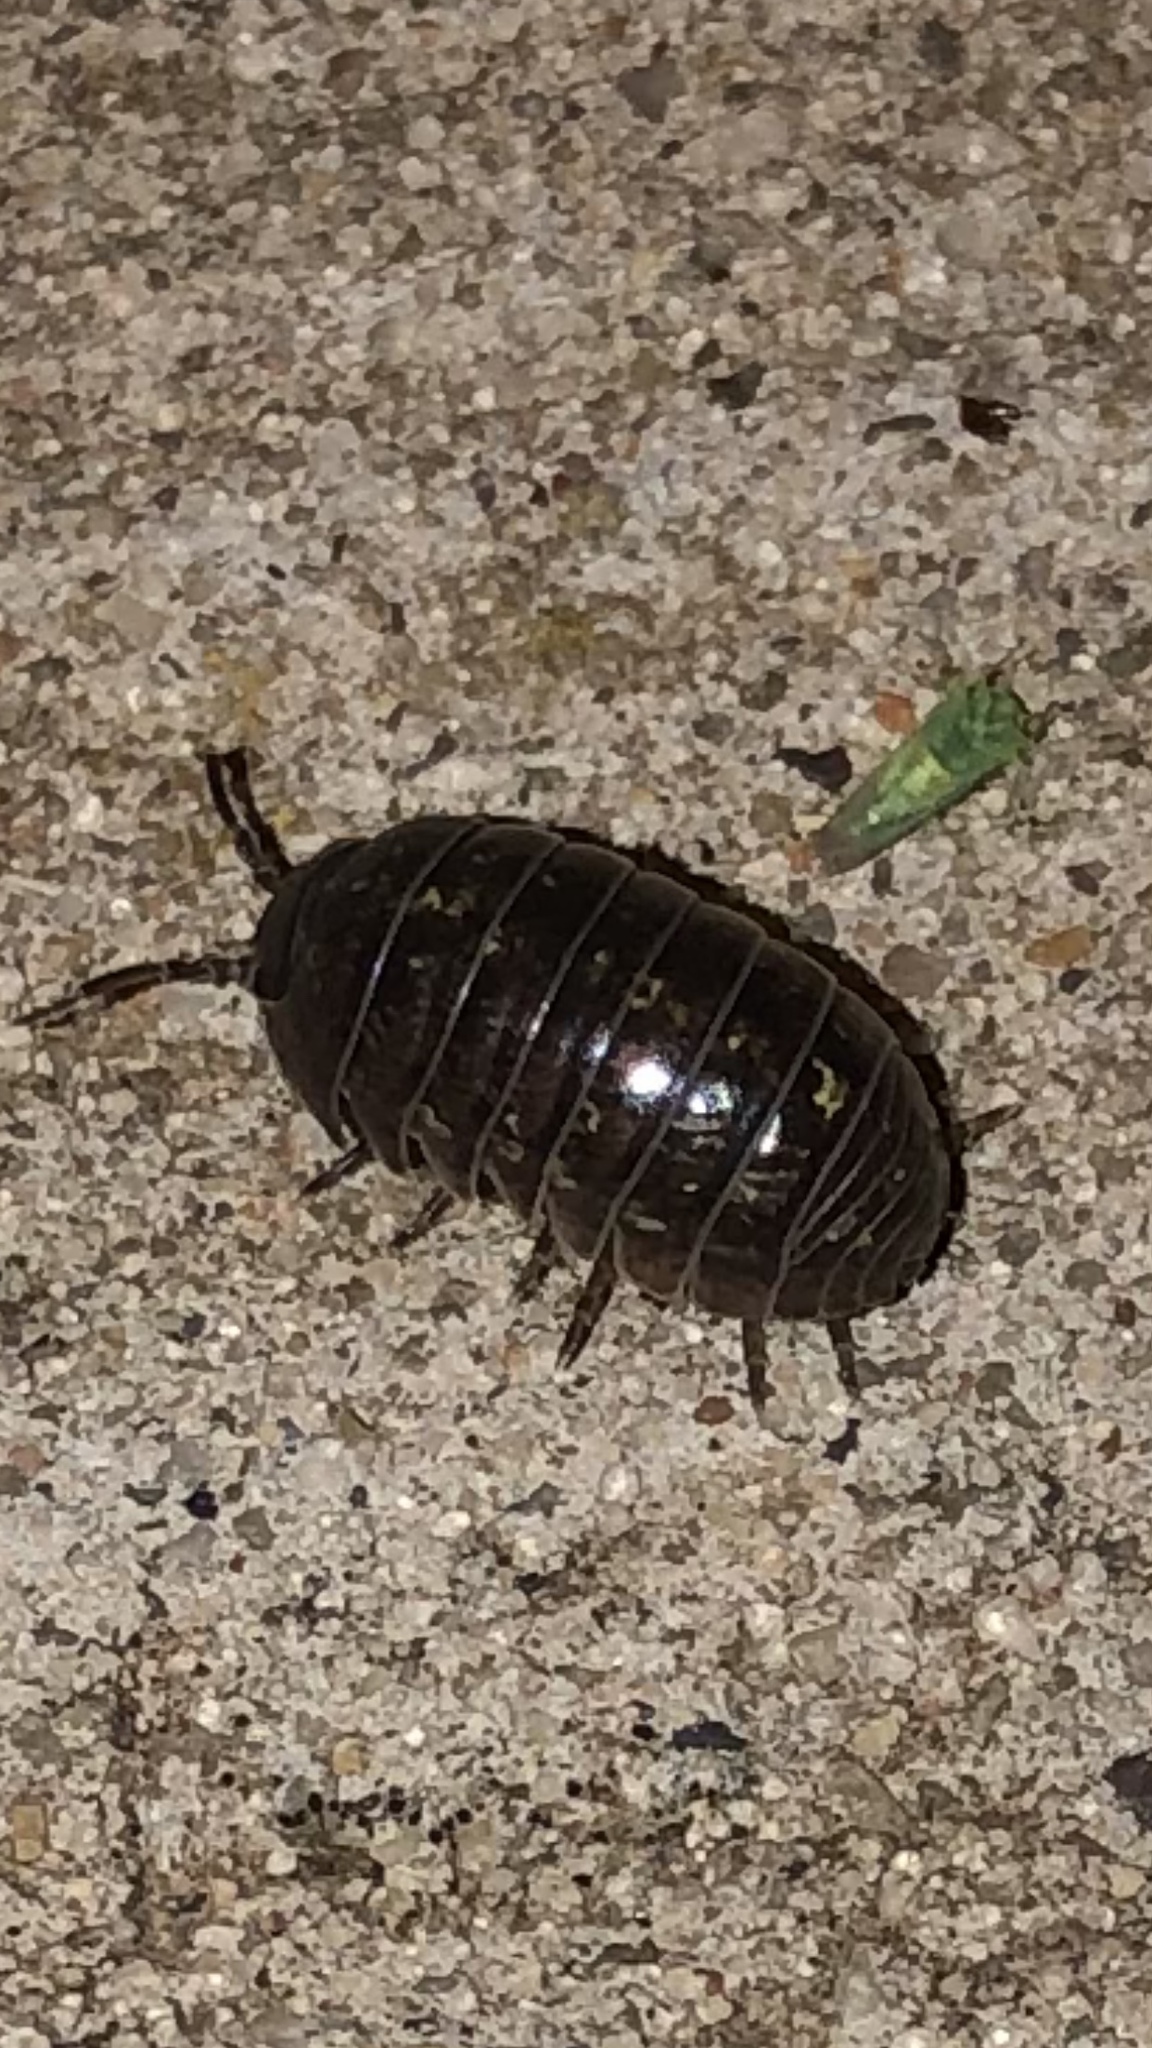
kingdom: Animalia
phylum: Arthropoda
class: Malacostraca
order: Isopoda
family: Armadillidiidae
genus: Armadillidium
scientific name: Armadillidium vulgare
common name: Common pill woodlouse
